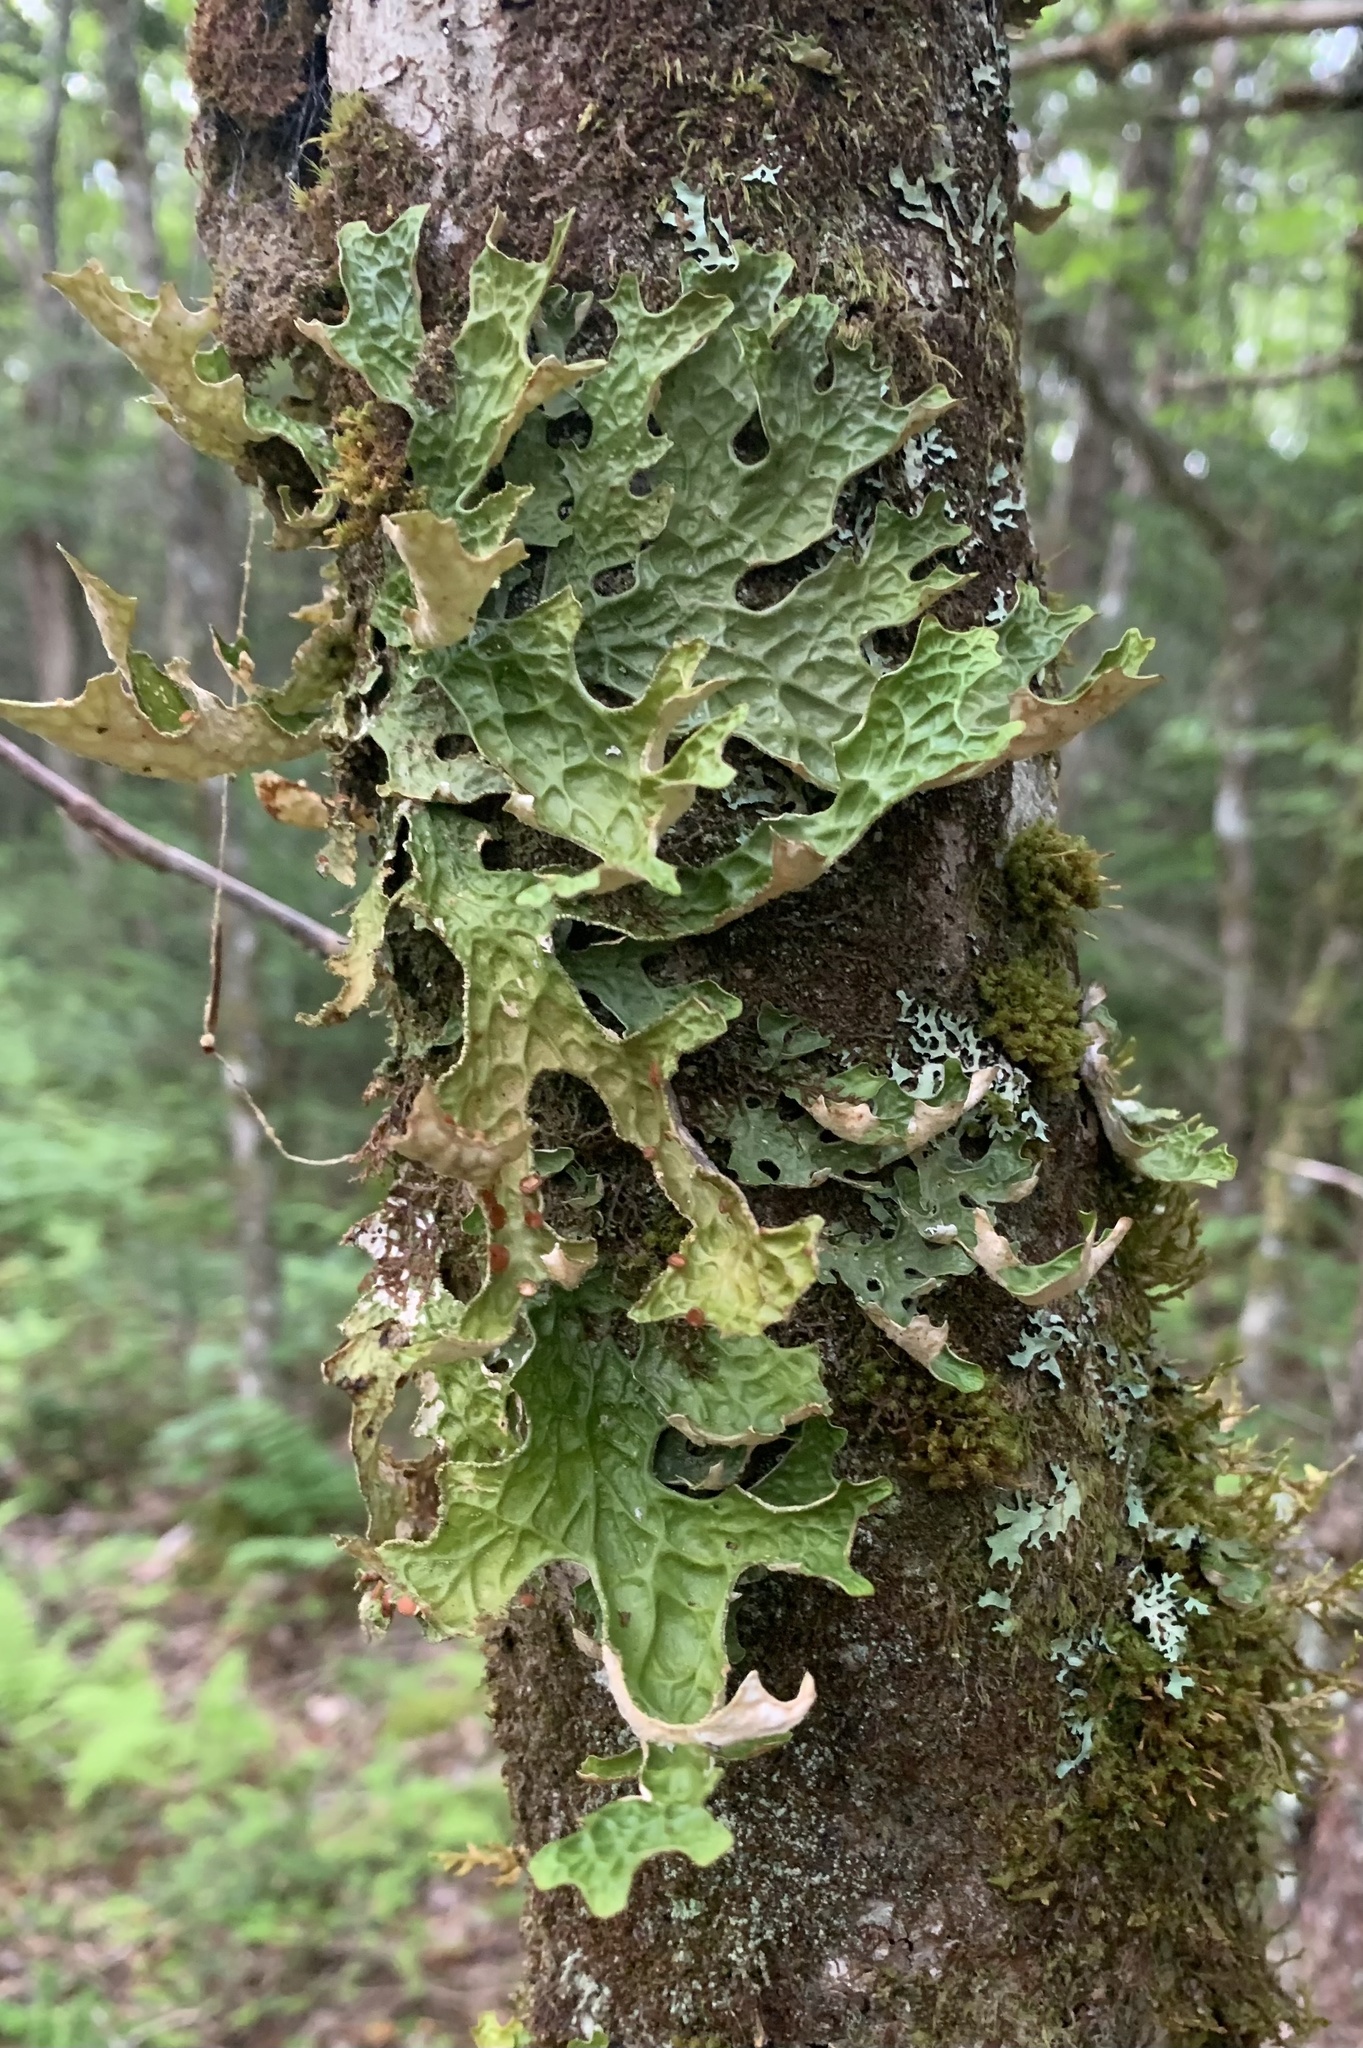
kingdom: Fungi
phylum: Ascomycota
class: Lecanoromycetes
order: Peltigerales
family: Lobariaceae
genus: Lobaria
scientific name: Lobaria pulmonaria
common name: Lungwort
